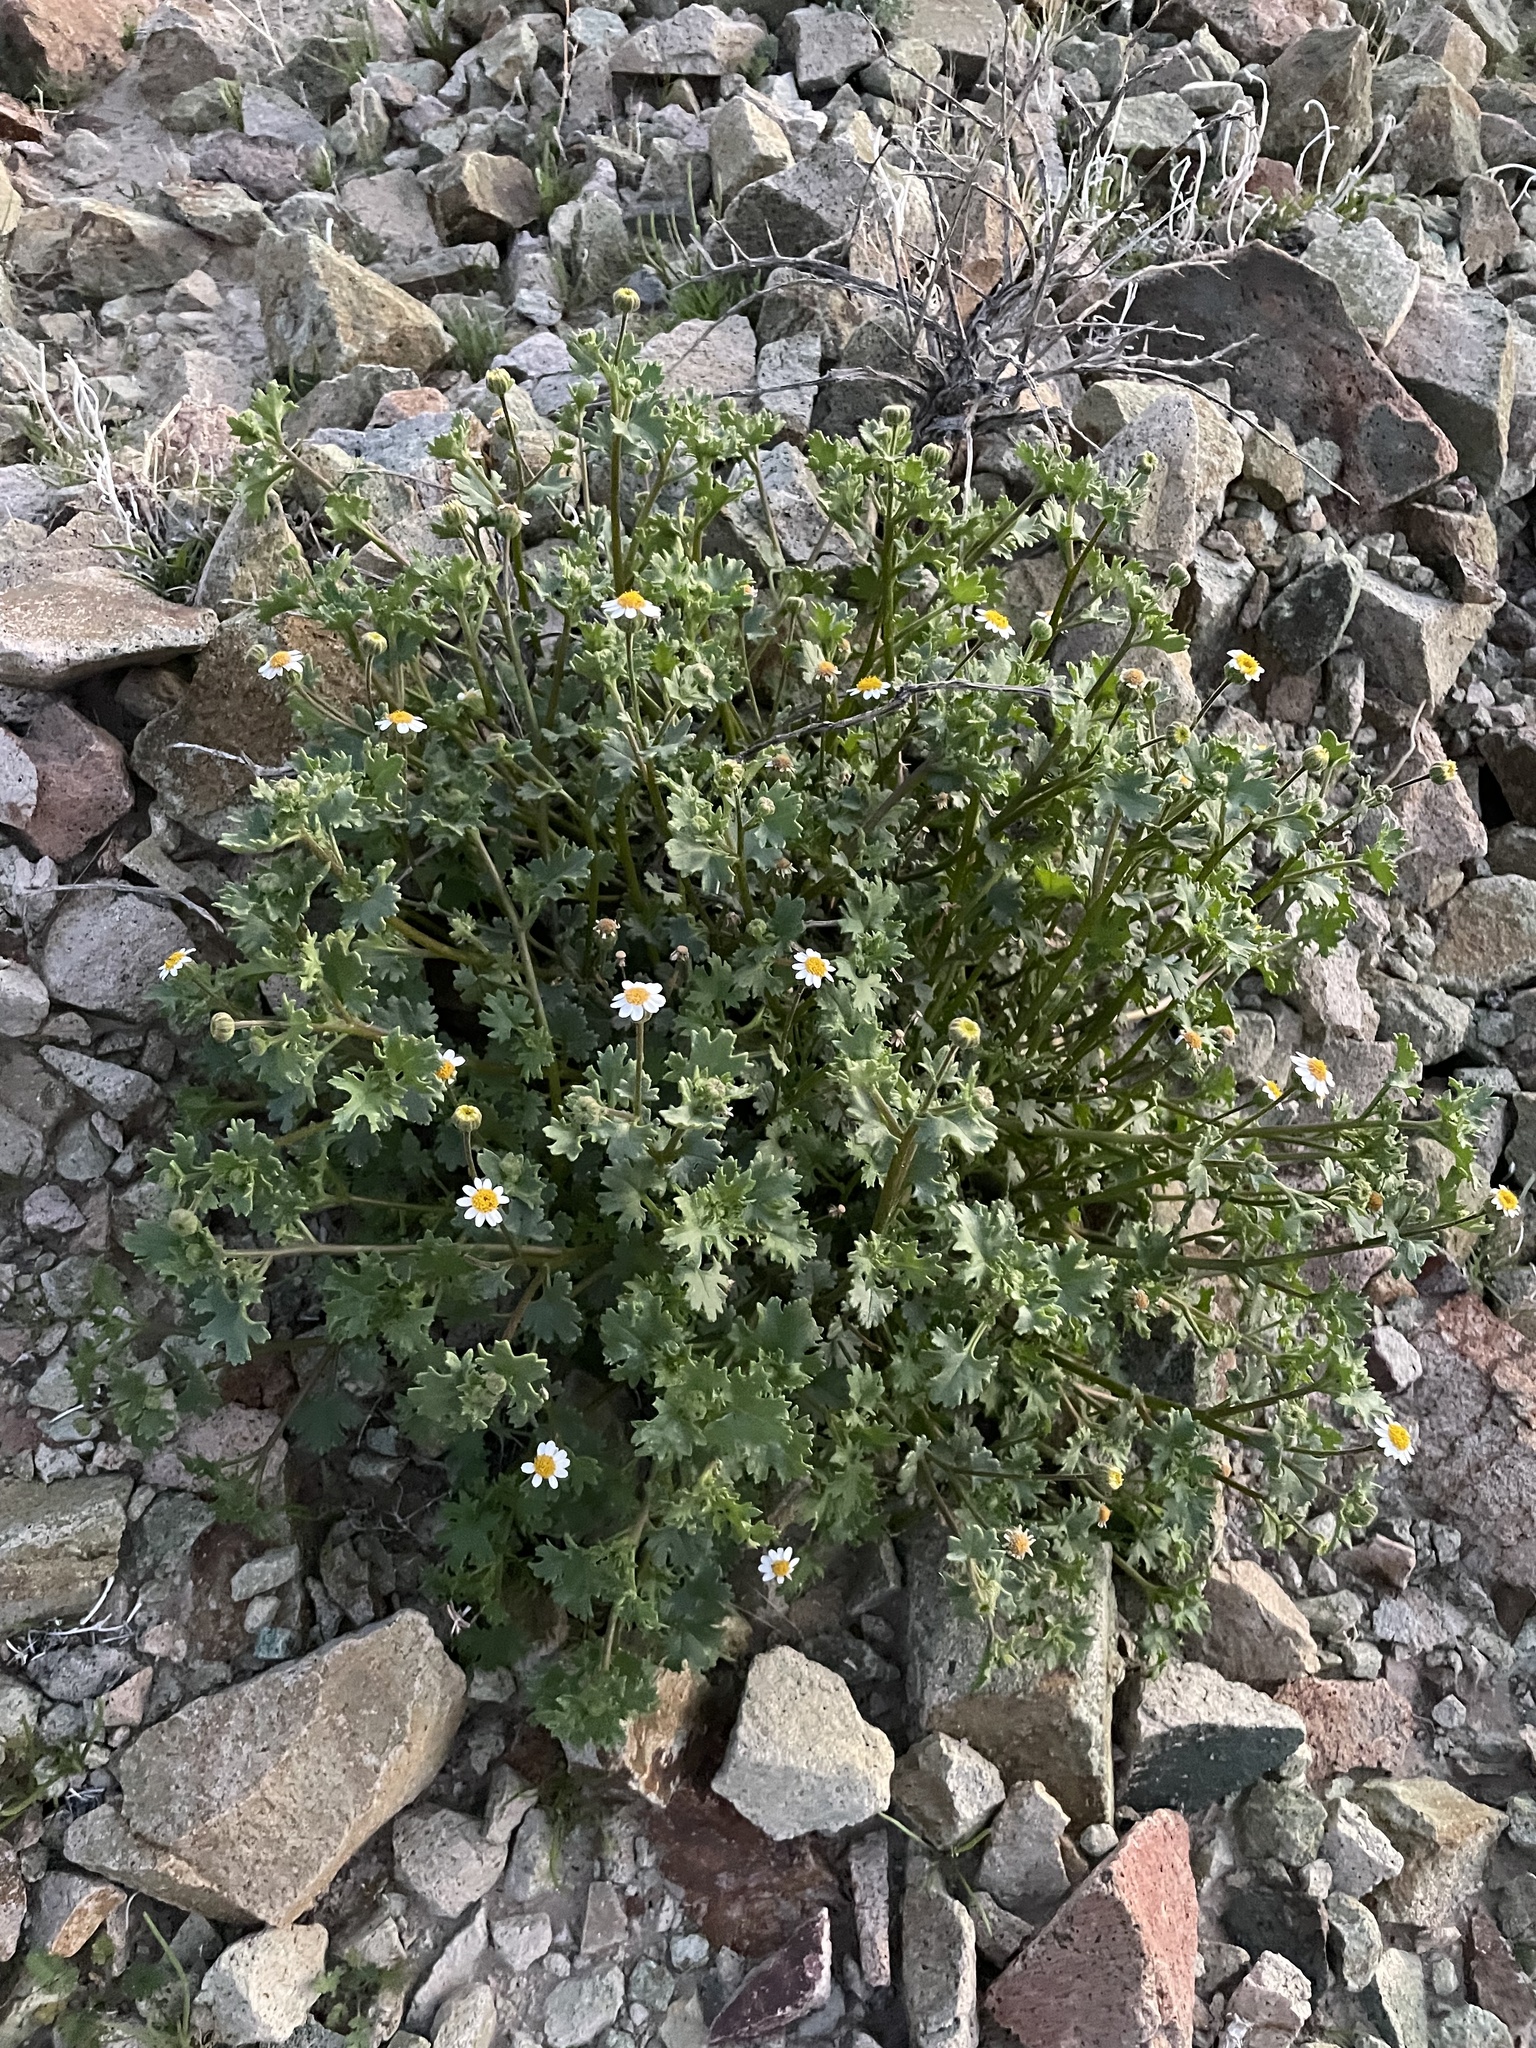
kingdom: Plantae
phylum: Tracheophyta
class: Magnoliopsida
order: Asterales
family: Asteraceae
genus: Laphamia
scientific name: Laphamia emoryi
